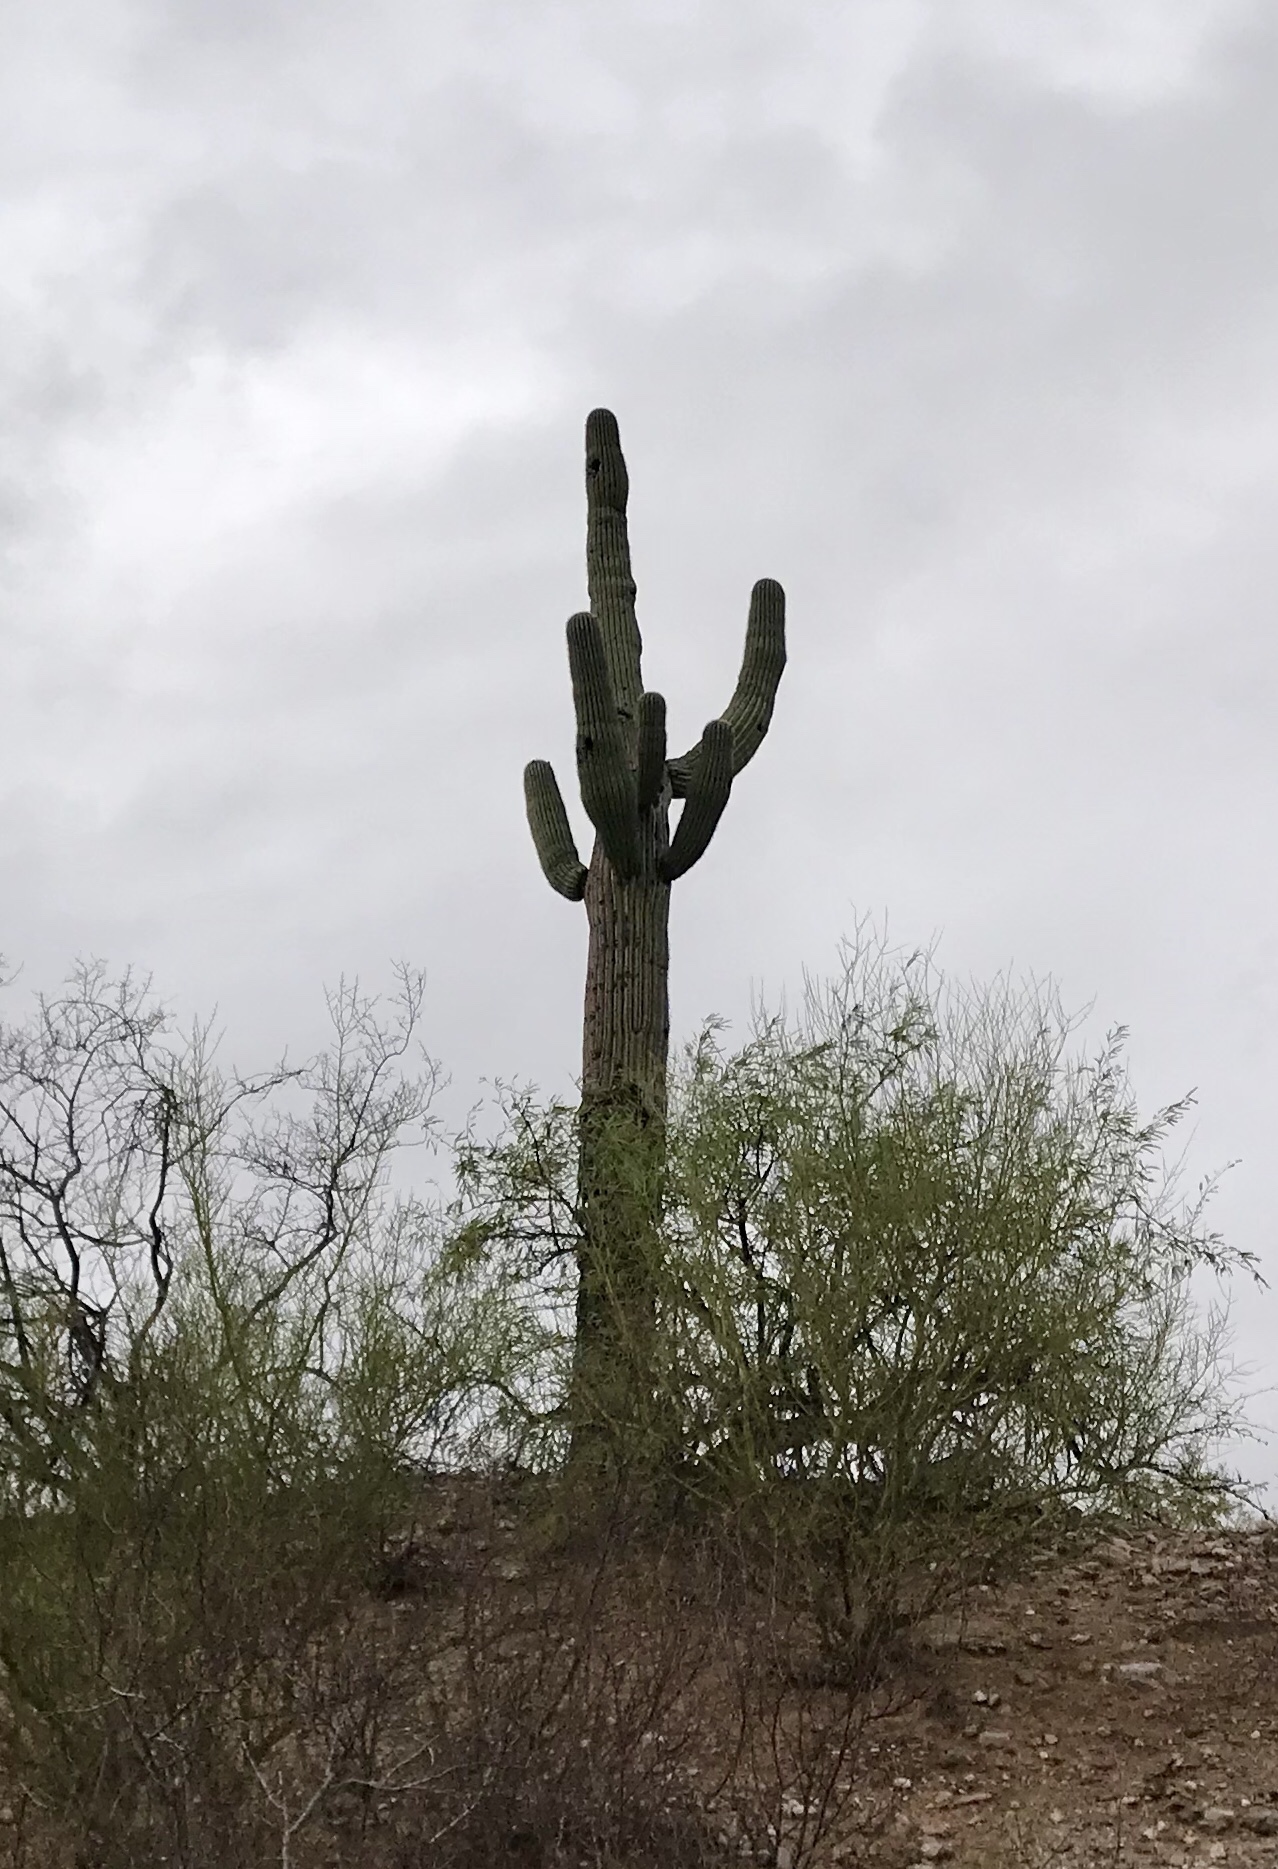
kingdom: Plantae
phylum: Tracheophyta
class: Magnoliopsida
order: Caryophyllales
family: Cactaceae
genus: Carnegiea
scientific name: Carnegiea gigantea
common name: Saguaro
